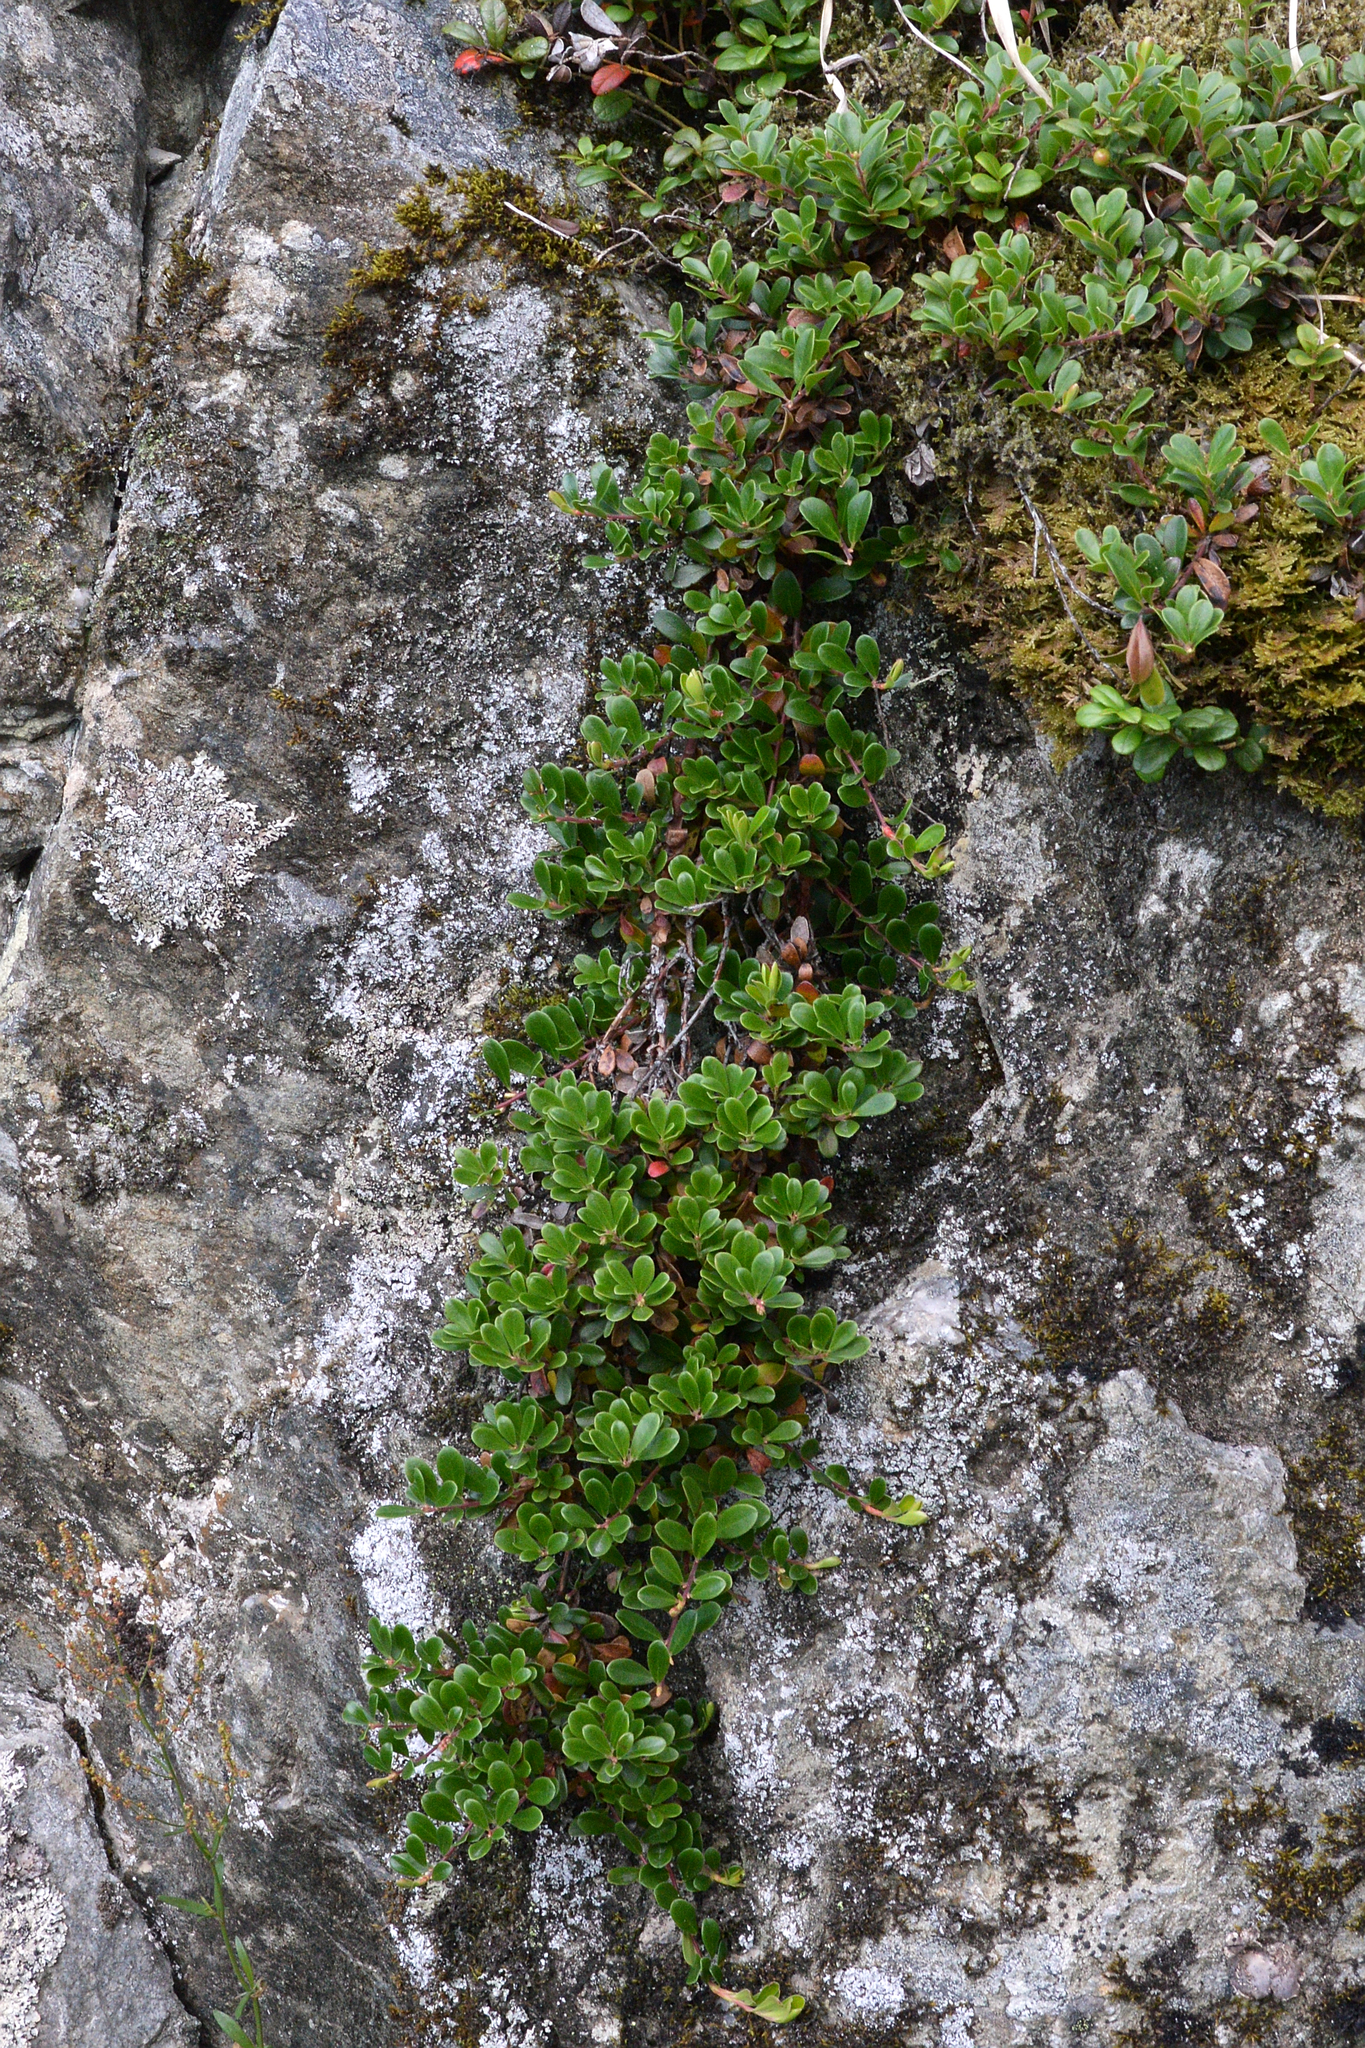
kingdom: Plantae
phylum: Tracheophyta
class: Magnoliopsida
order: Ericales
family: Ericaceae
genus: Arctostaphylos
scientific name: Arctostaphylos uva-ursi
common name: Bearberry
